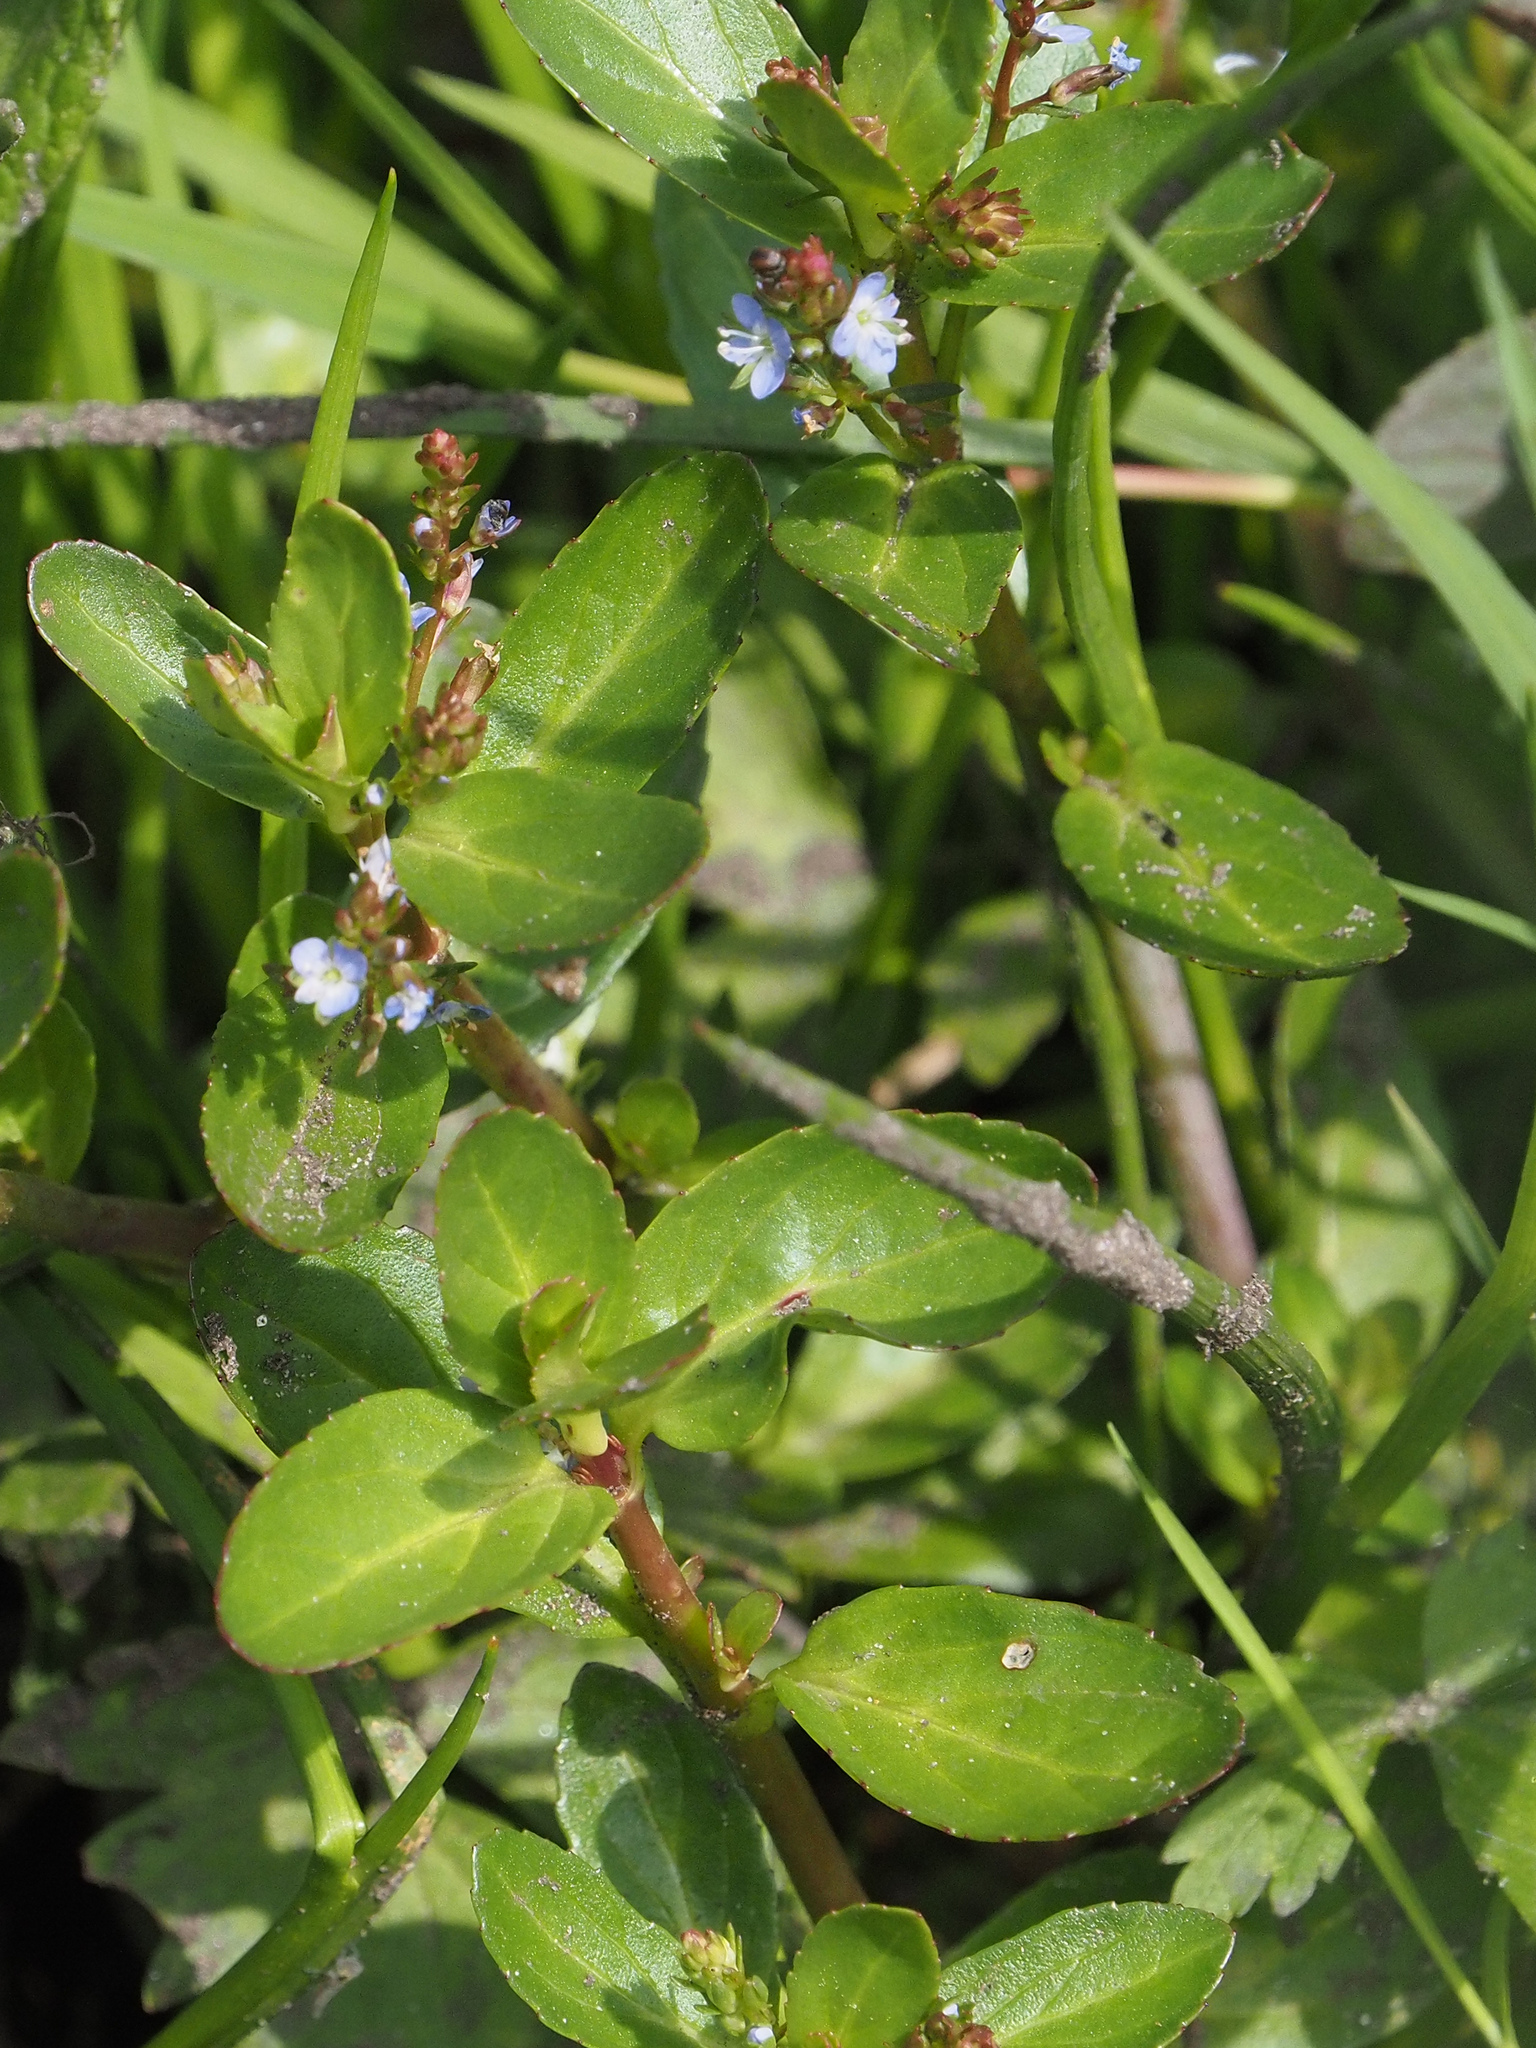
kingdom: Plantae
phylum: Tracheophyta
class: Magnoliopsida
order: Lamiales
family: Plantaginaceae
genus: Veronica
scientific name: Veronica beccabunga
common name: Brooklime
